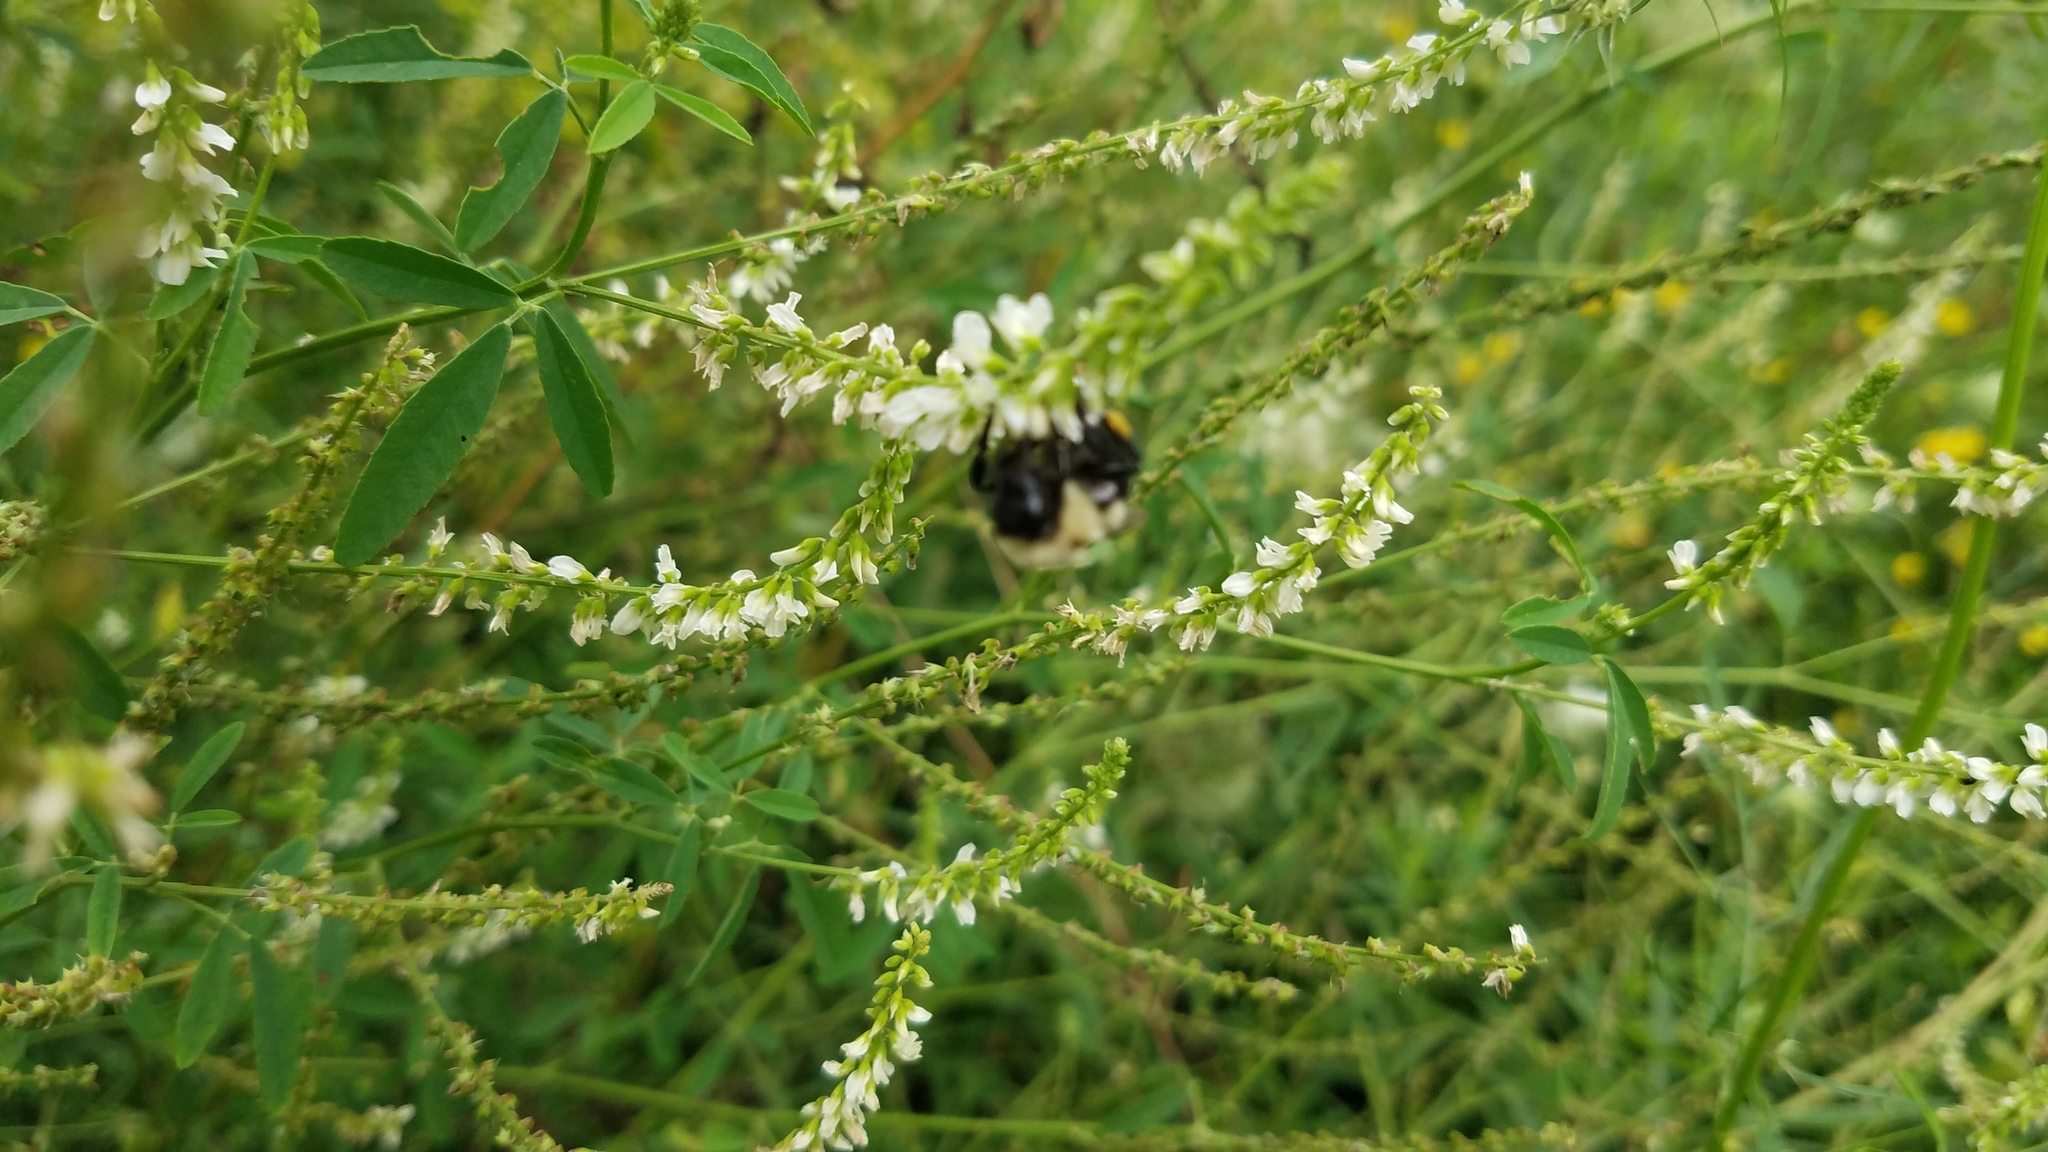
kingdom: Plantae
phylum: Tracheophyta
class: Magnoliopsida
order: Fabales
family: Fabaceae
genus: Melilotus
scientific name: Melilotus albus
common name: White melilot
